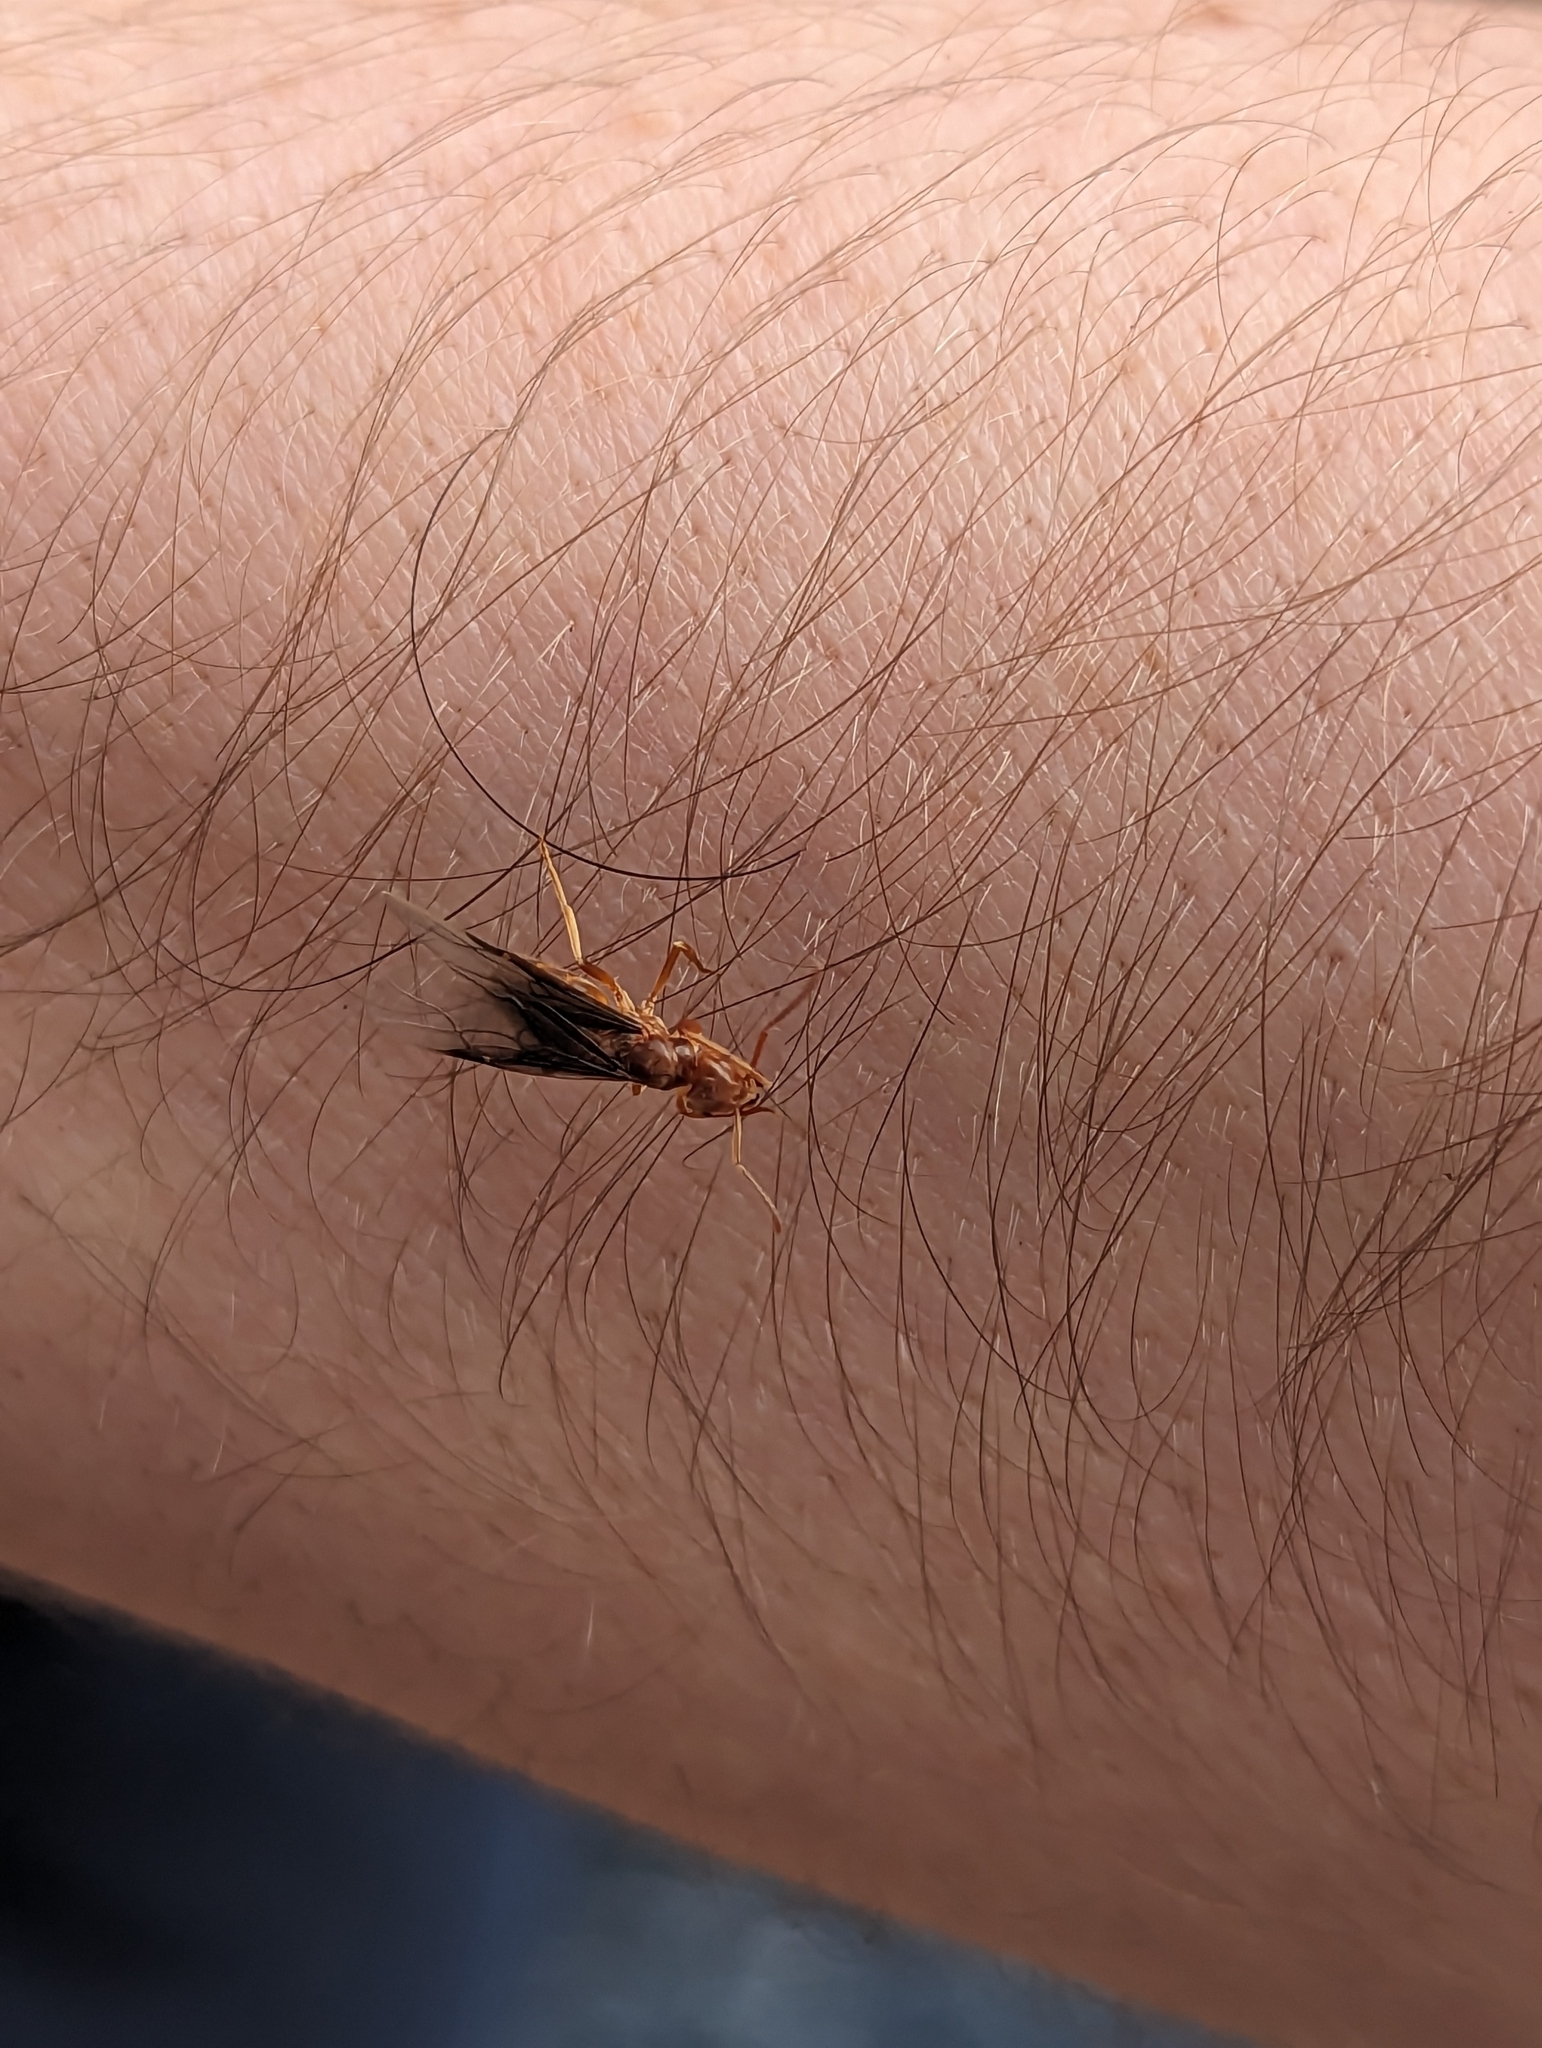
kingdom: Animalia
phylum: Arthropoda
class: Insecta
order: Hymenoptera
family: Formicidae
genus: Lasius
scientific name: Lasius subumbratus
